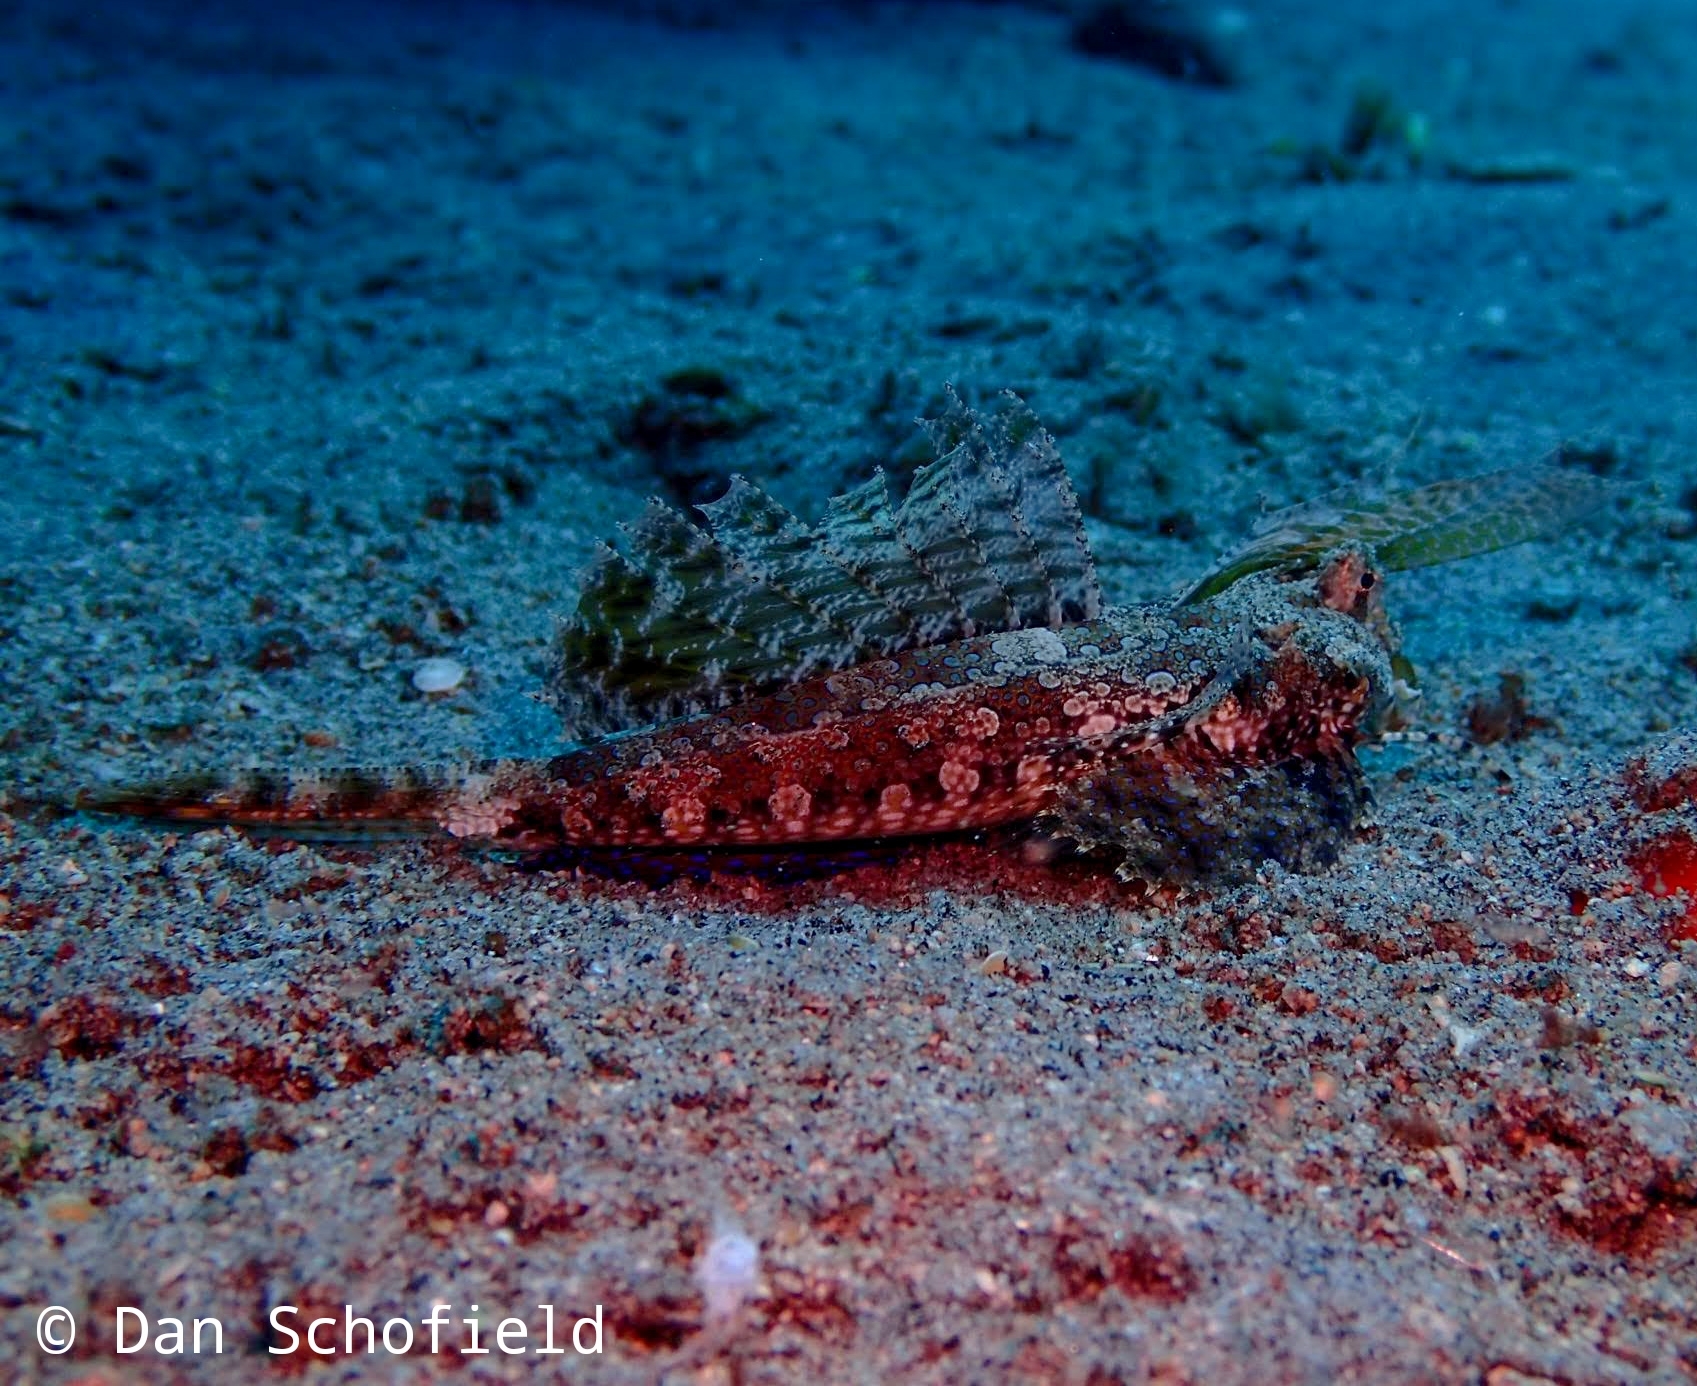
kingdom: Animalia
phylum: Chordata
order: Perciformes
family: Callionymidae
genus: Dactylopus
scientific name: Dactylopus kuiteri
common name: Kuiter's dragonet
